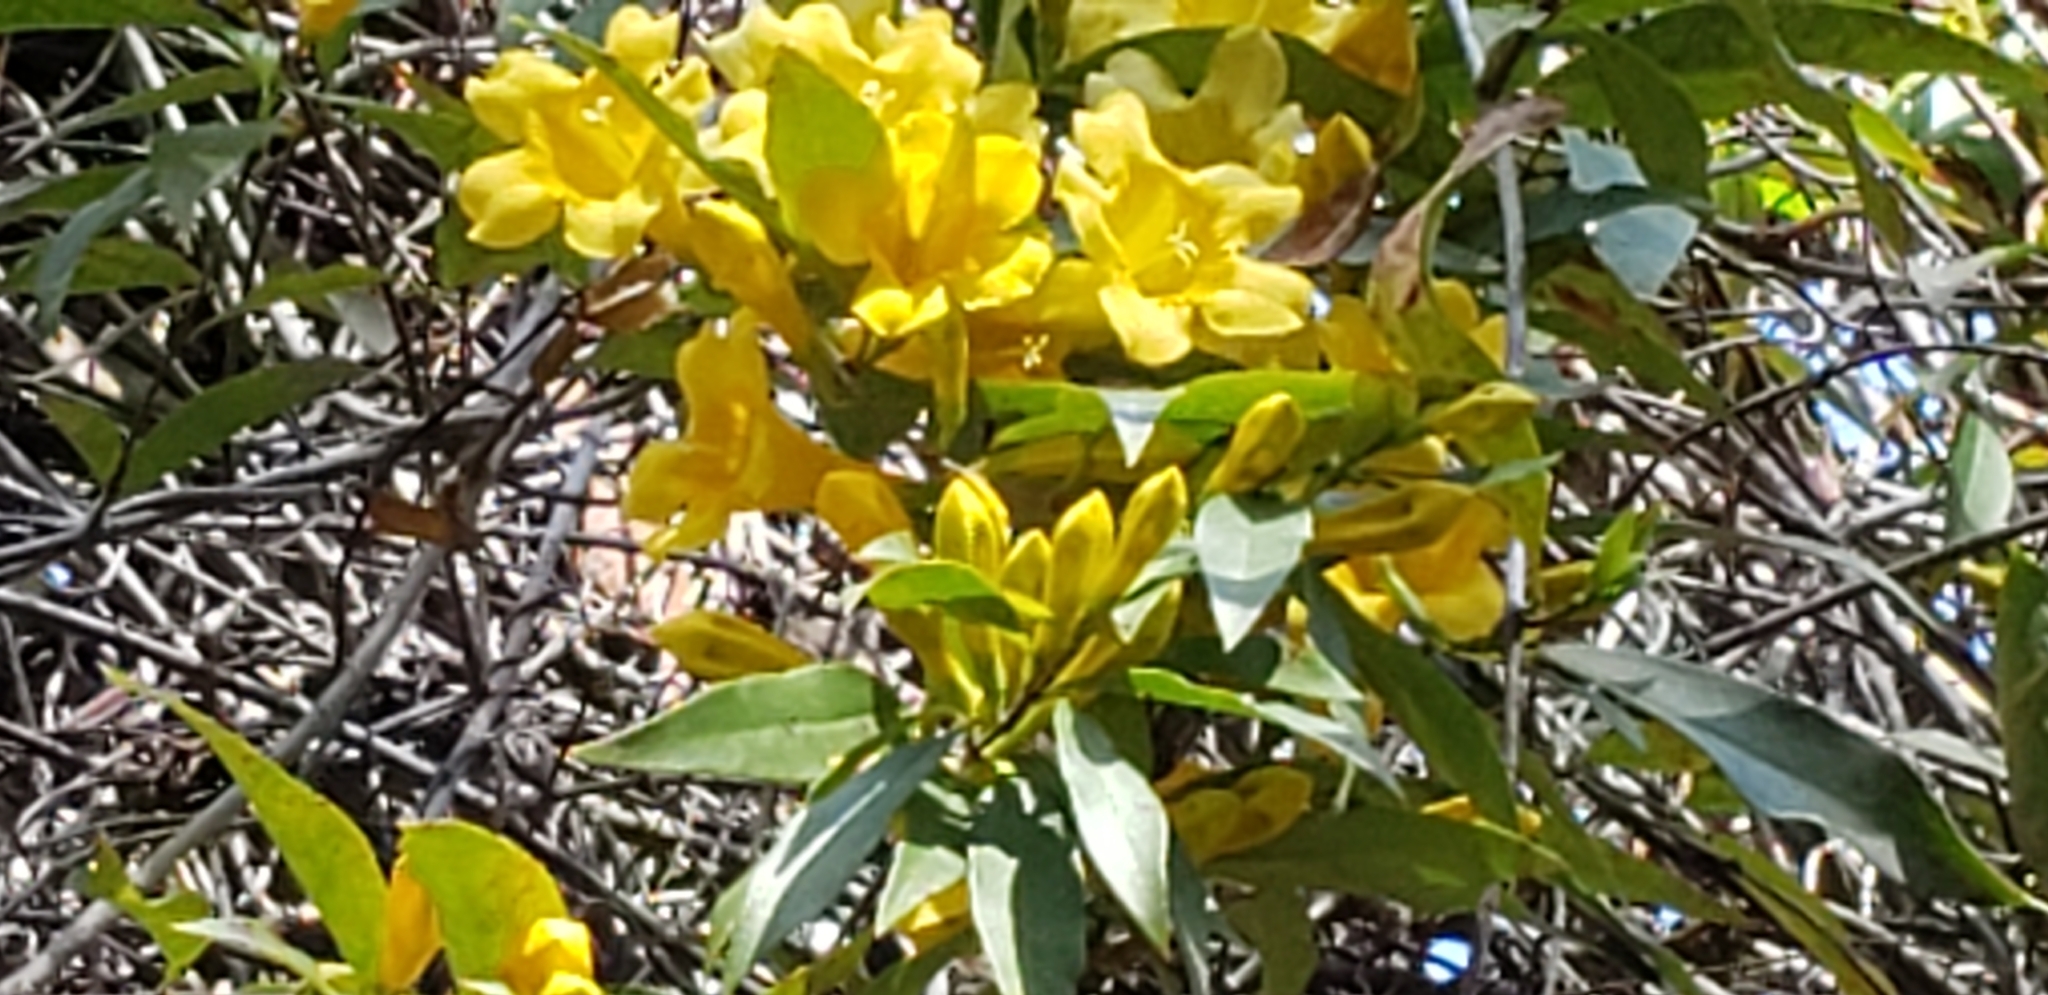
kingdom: Plantae
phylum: Tracheophyta
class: Magnoliopsida
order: Gentianales
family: Gelsemiaceae
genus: Gelsemium
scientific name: Gelsemium sempervirens
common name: Carolina-jasmine
